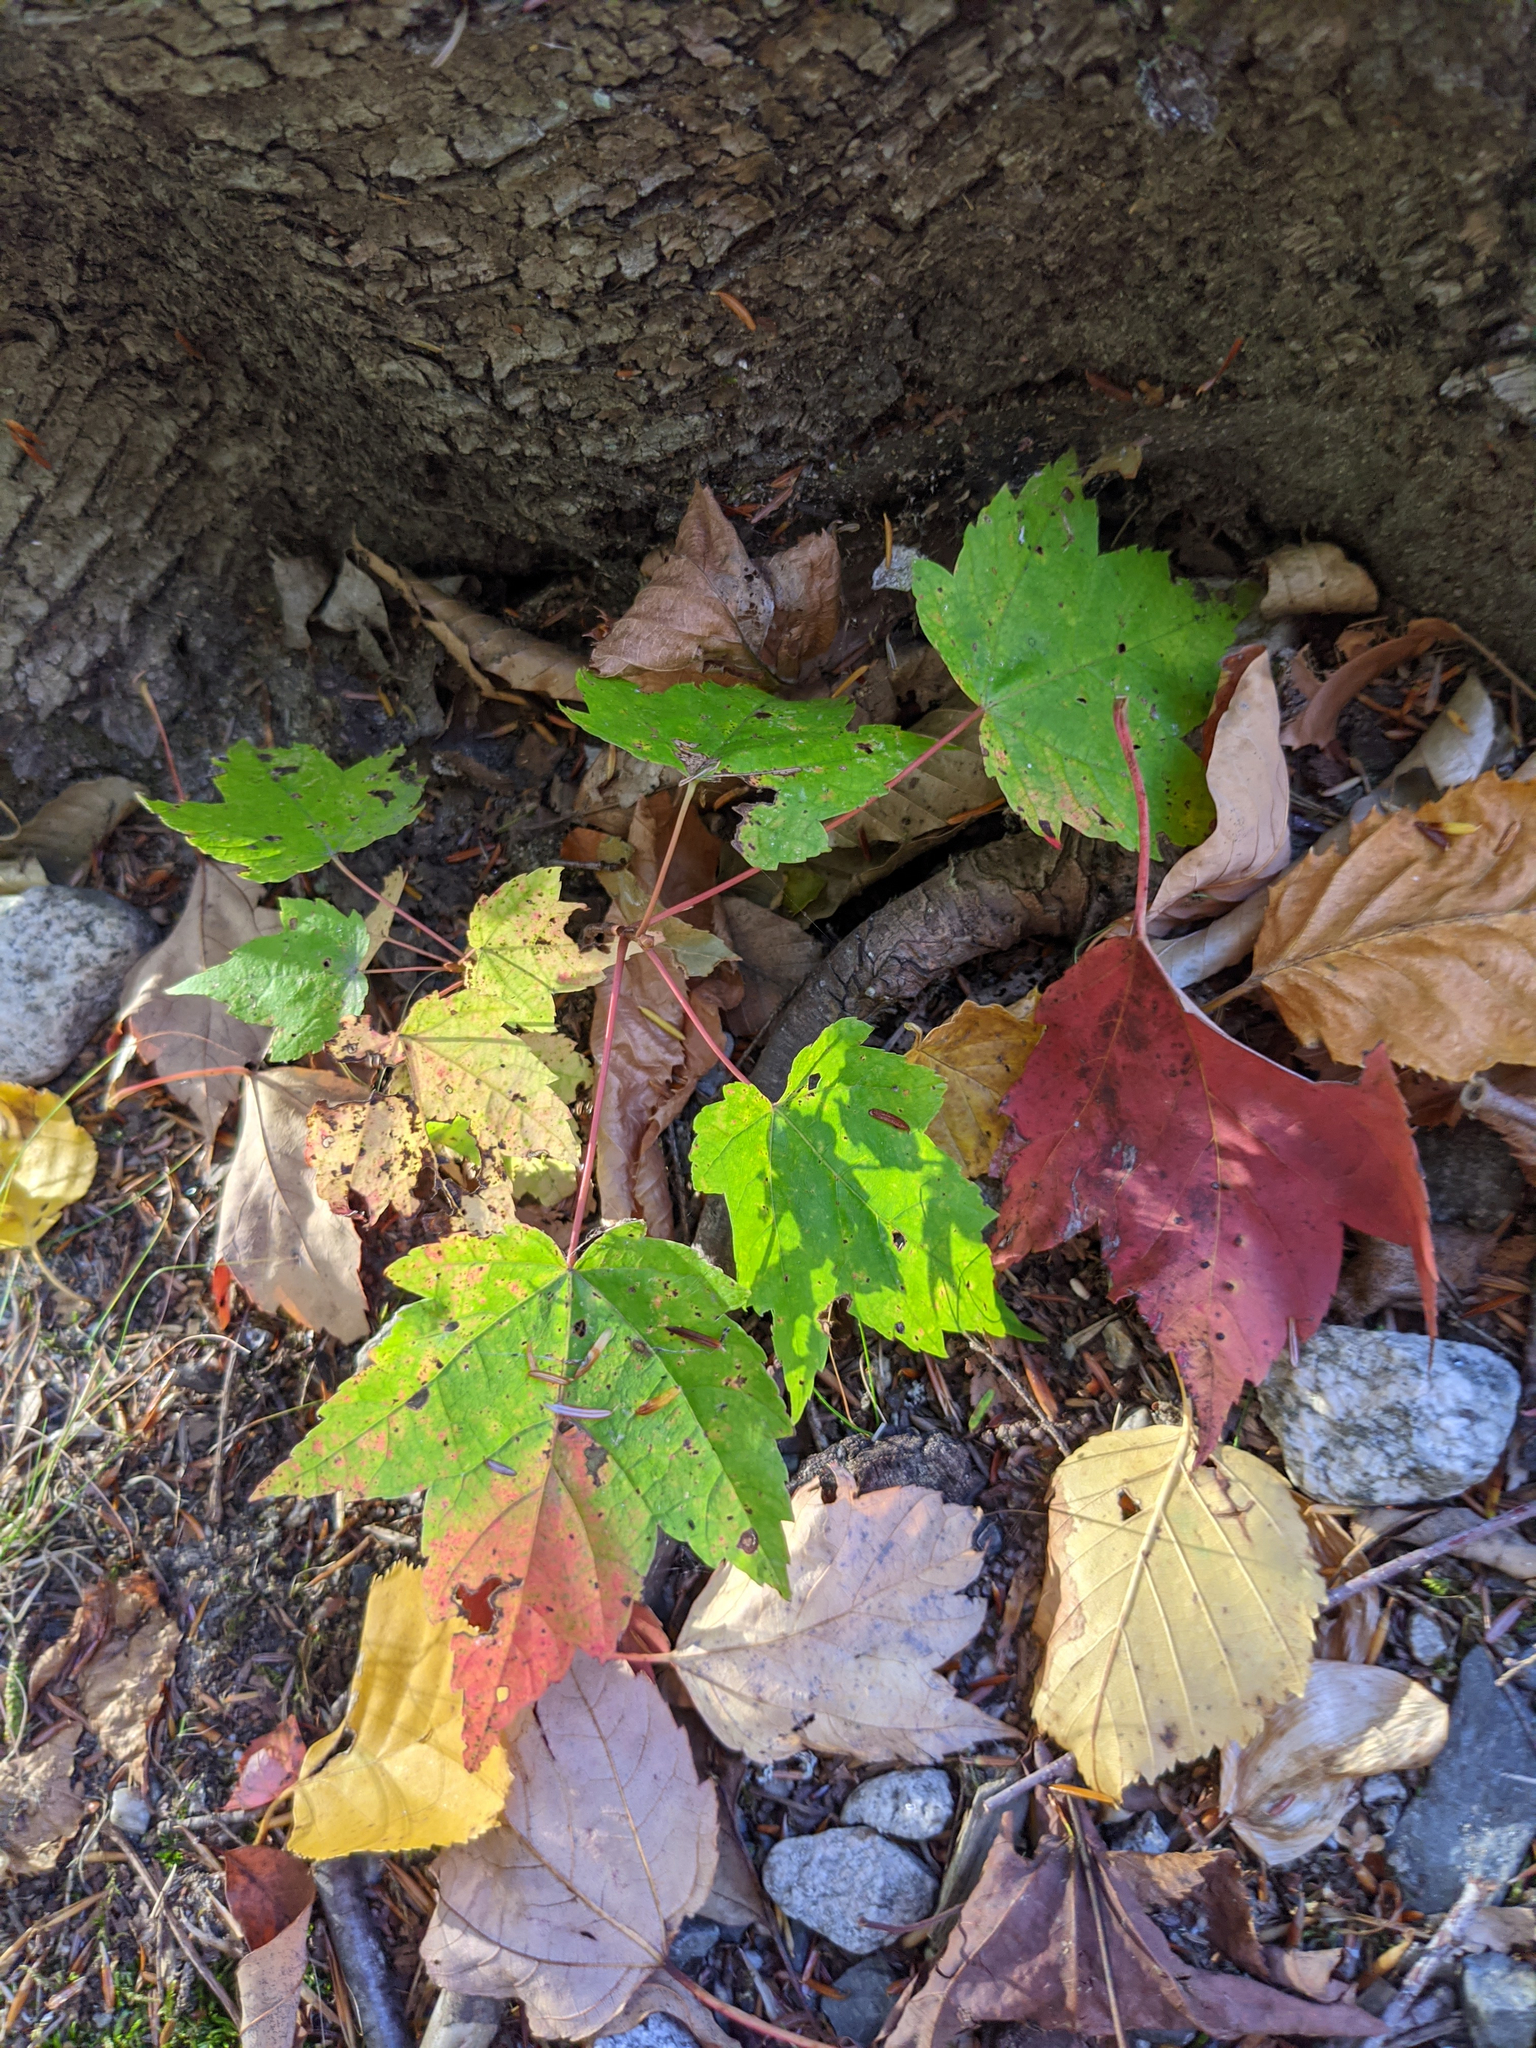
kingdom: Plantae
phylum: Tracheophyta
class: Magnoliopsida
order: Sapindales
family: Sapindaceae
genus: Acer
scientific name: Acer rubrum
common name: Red maple
